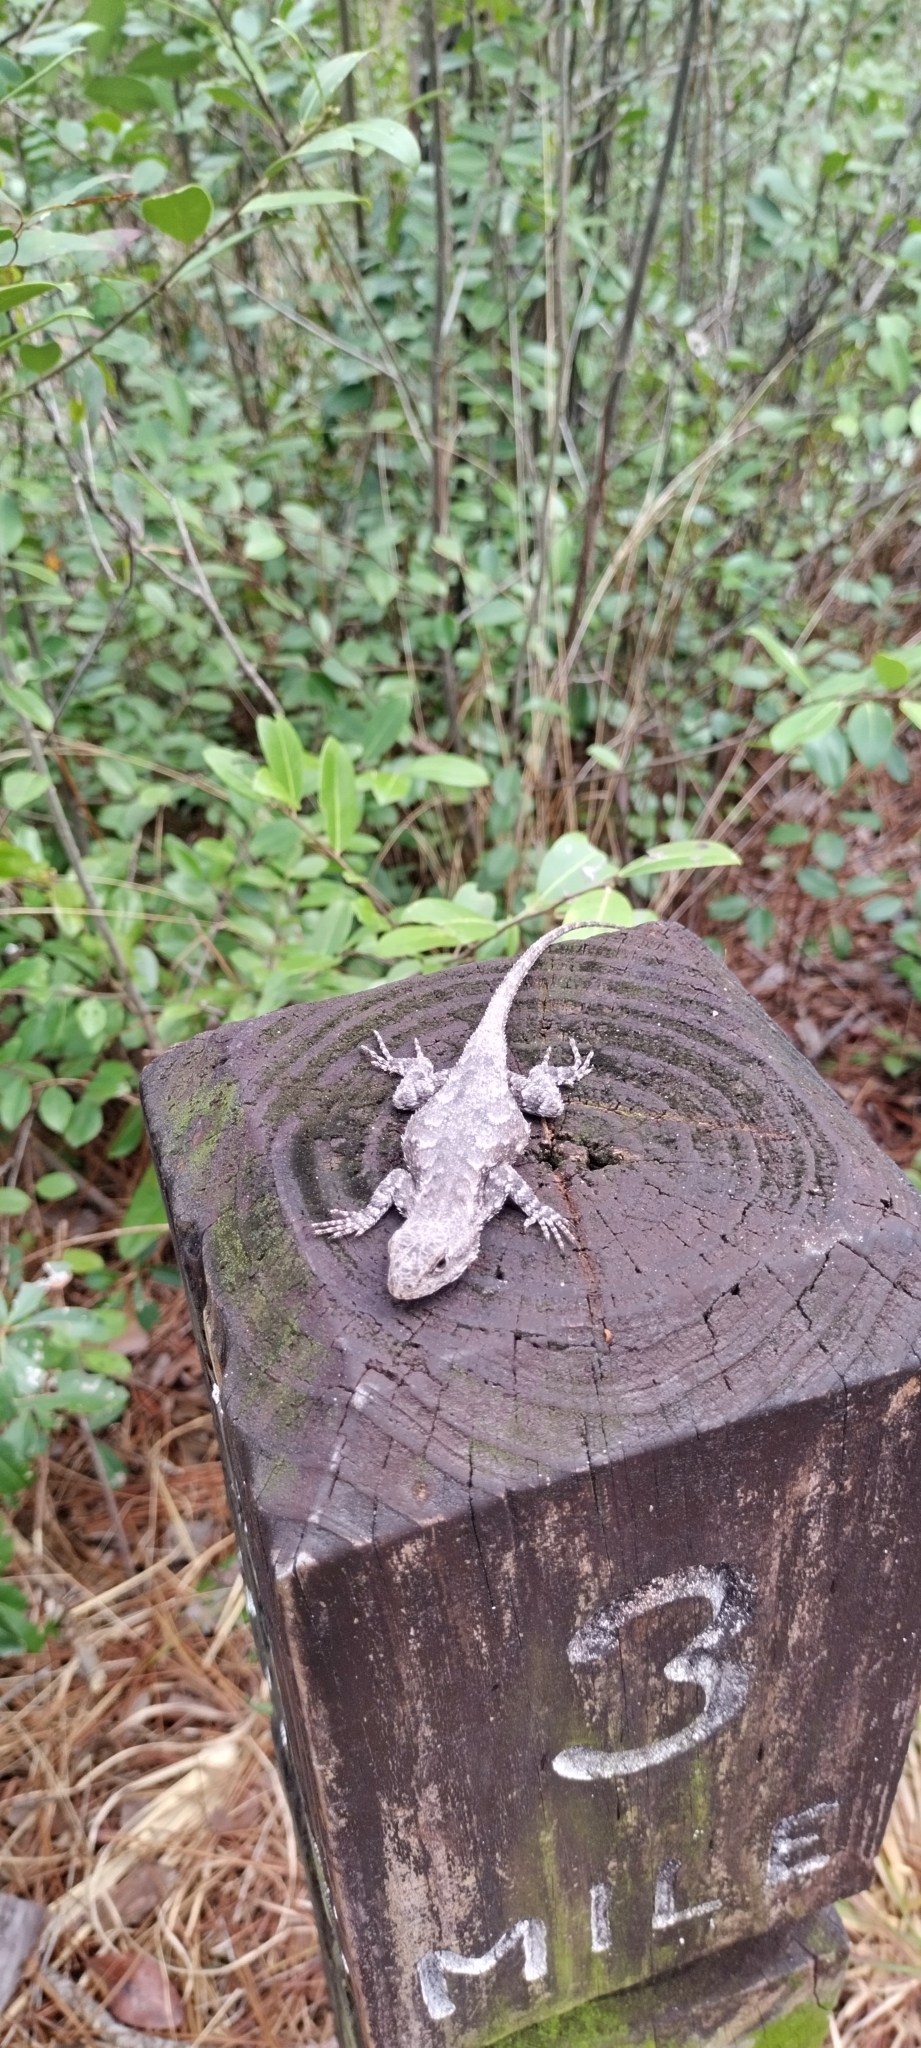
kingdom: Animalia
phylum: Chordata
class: Squamata
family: Phrynosomatidae
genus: Sceloporus
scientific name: Sceloporus undulatus
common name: Eastern fence lizard
